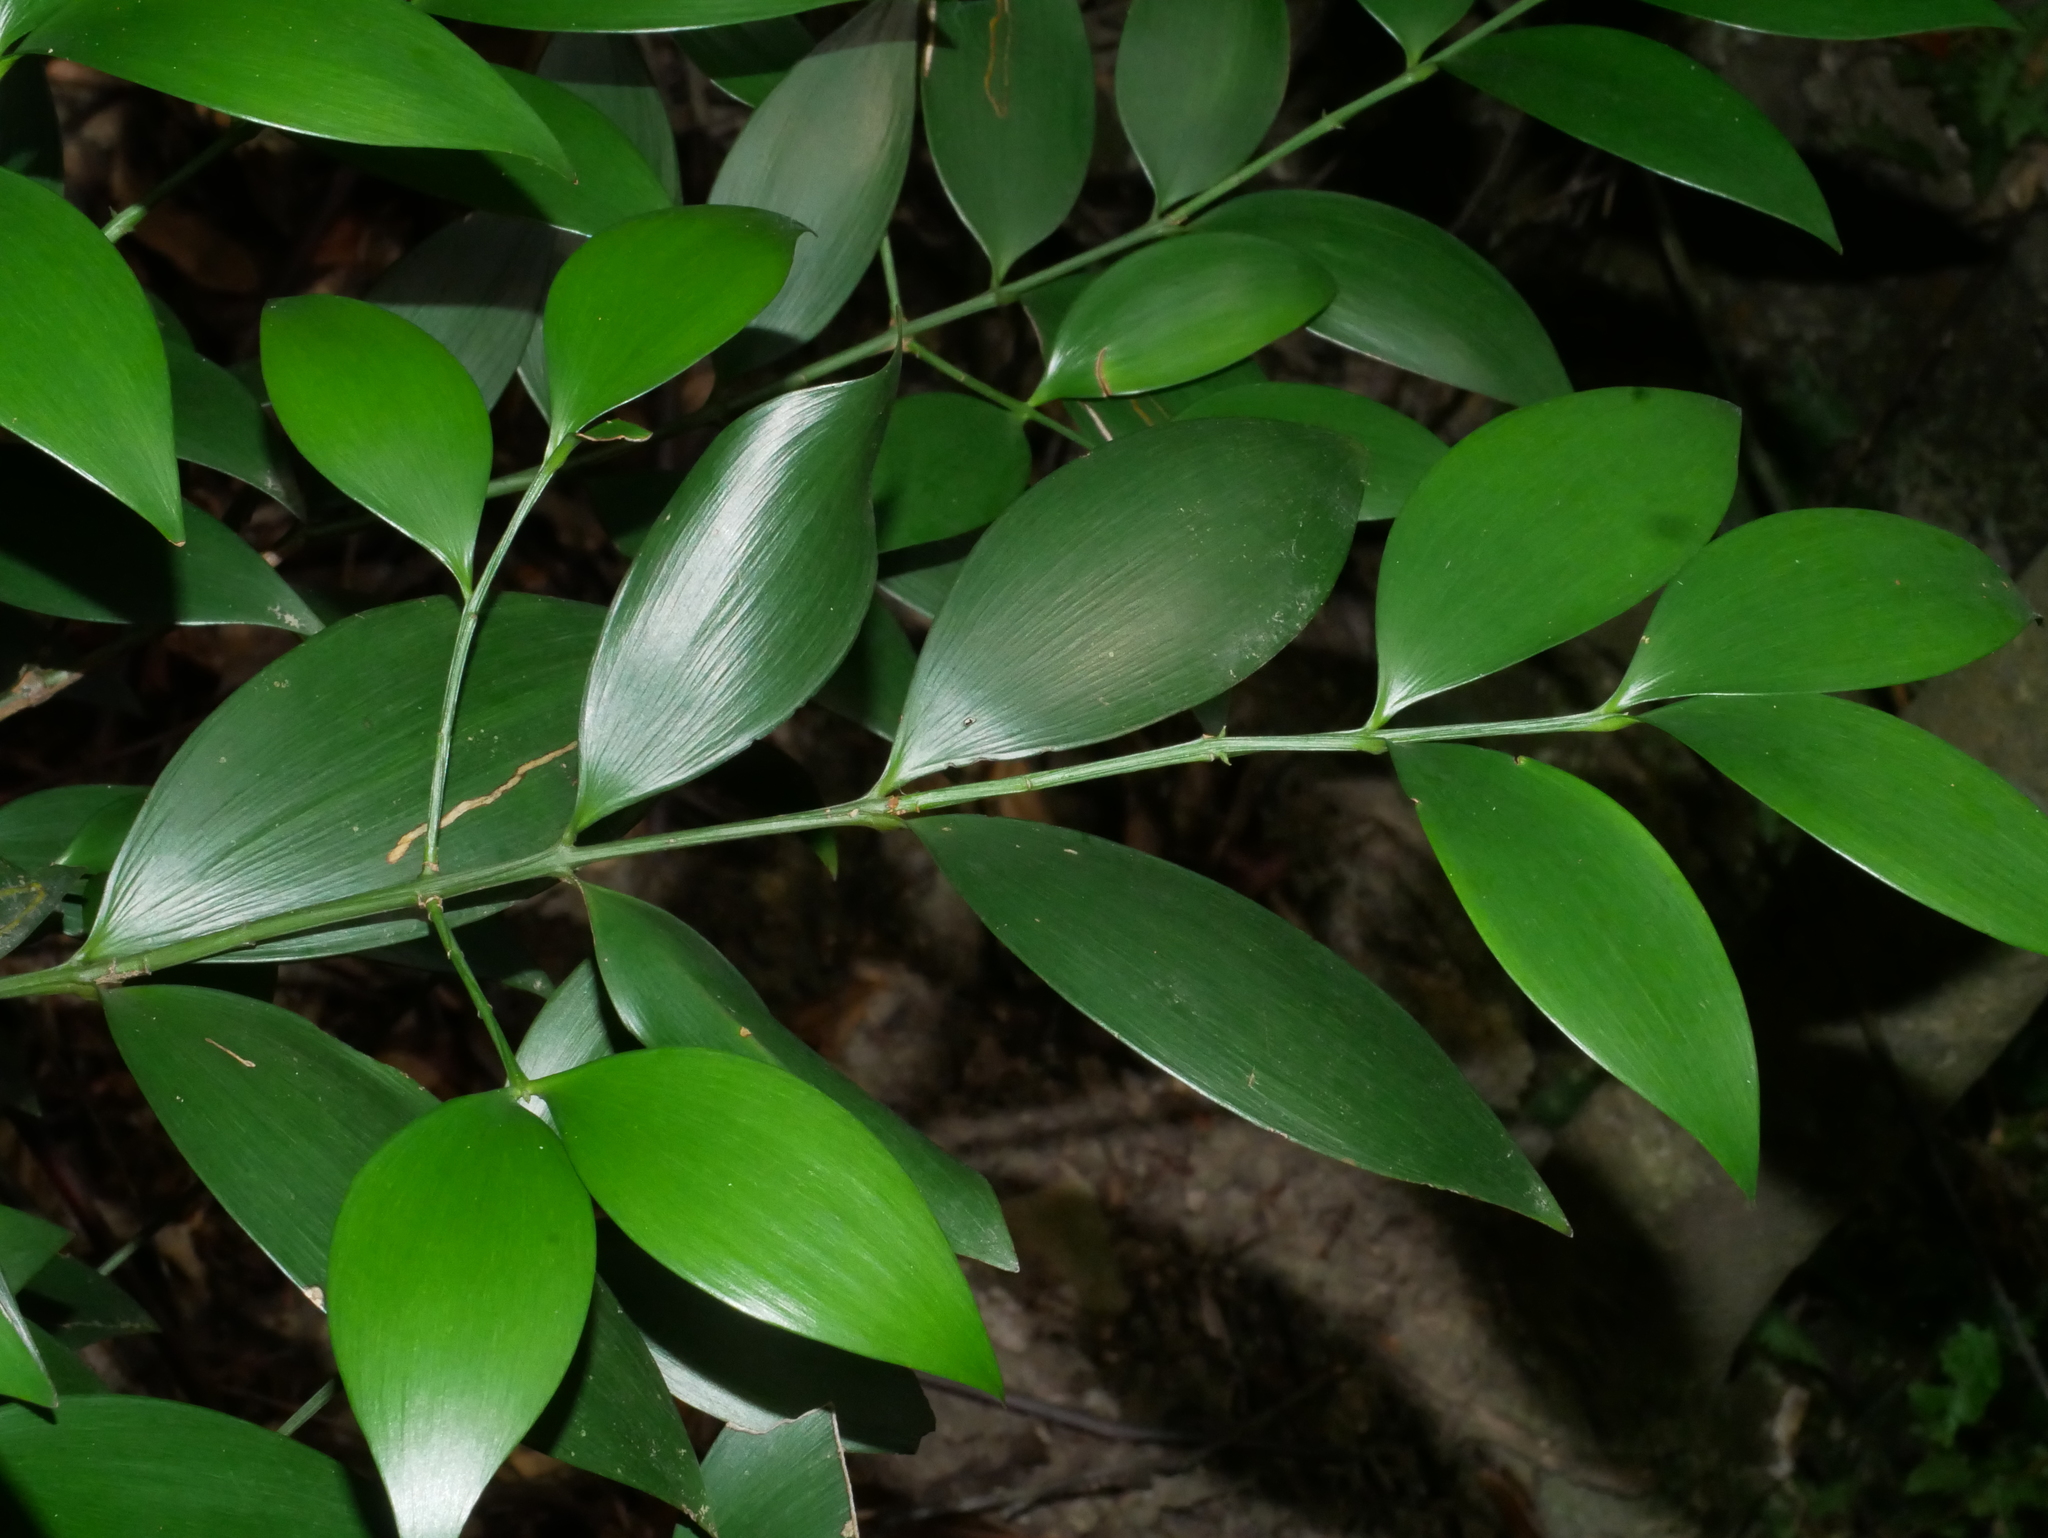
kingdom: Plantae
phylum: Tracheophyta
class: Pinopsida
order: Pinales
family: Podocarpaceae
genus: Nageia
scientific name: Nageia nagi
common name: Kaphal
